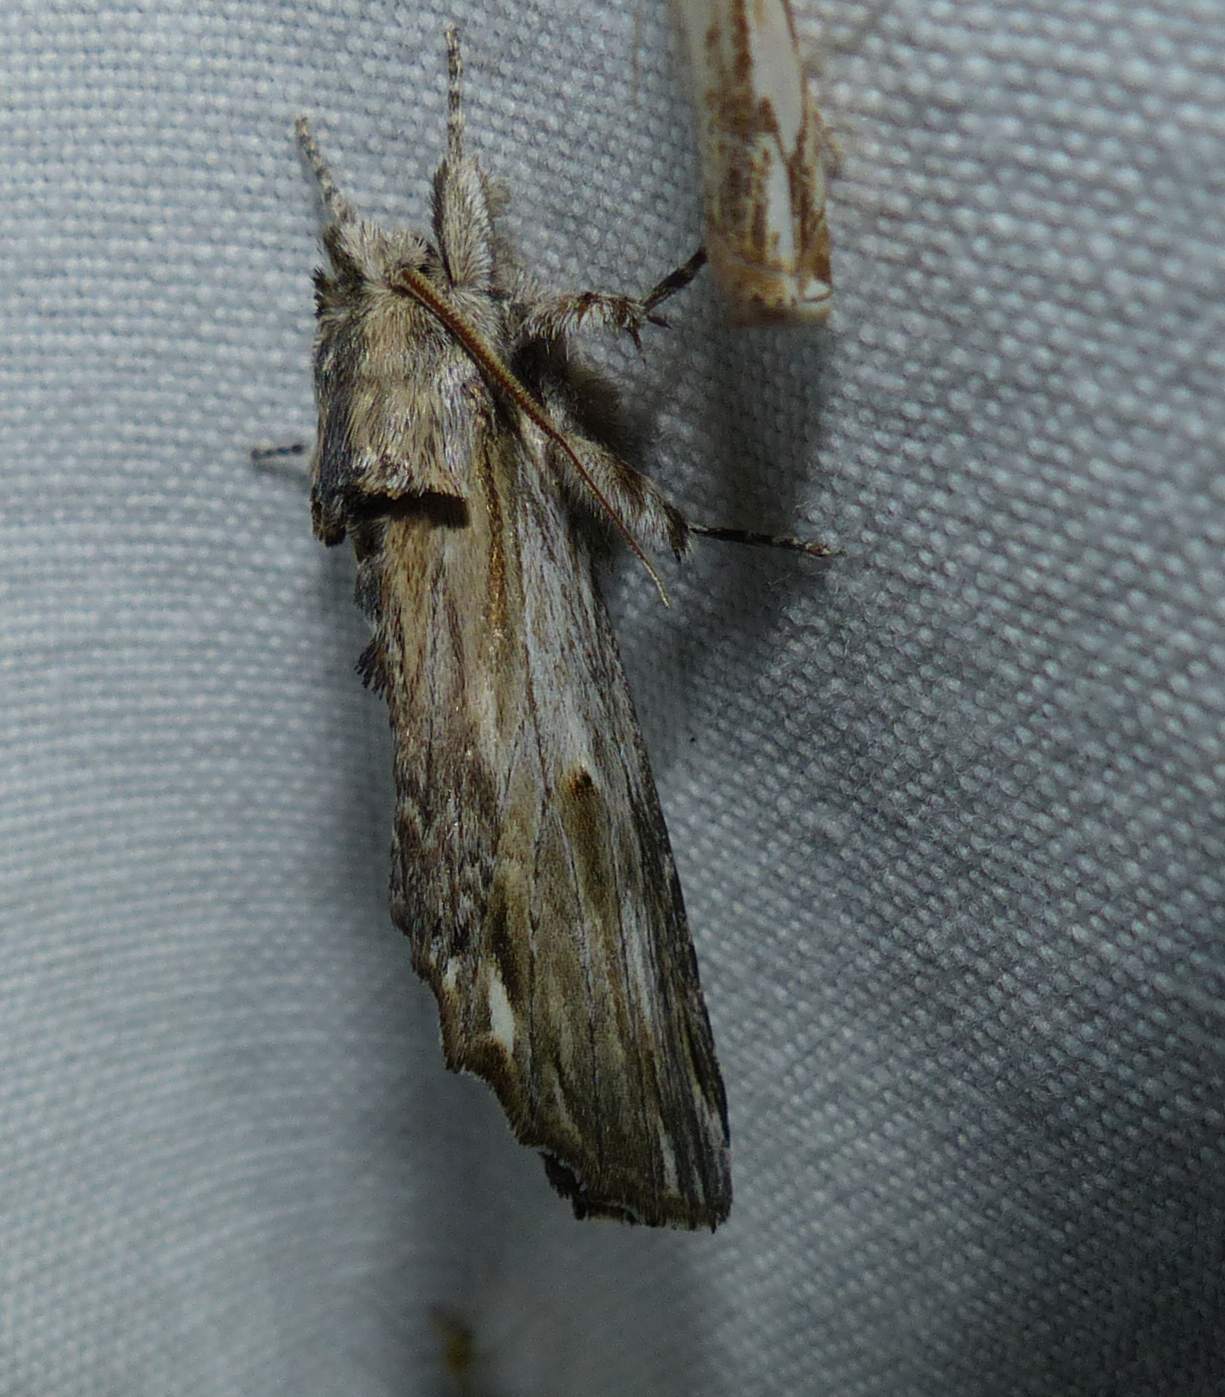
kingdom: Animalia
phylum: Arthropoda
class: Insecta
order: Lepidoptera
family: Notodontidae
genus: Oligocentria
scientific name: Oligocentria Ianassa lignicolor
